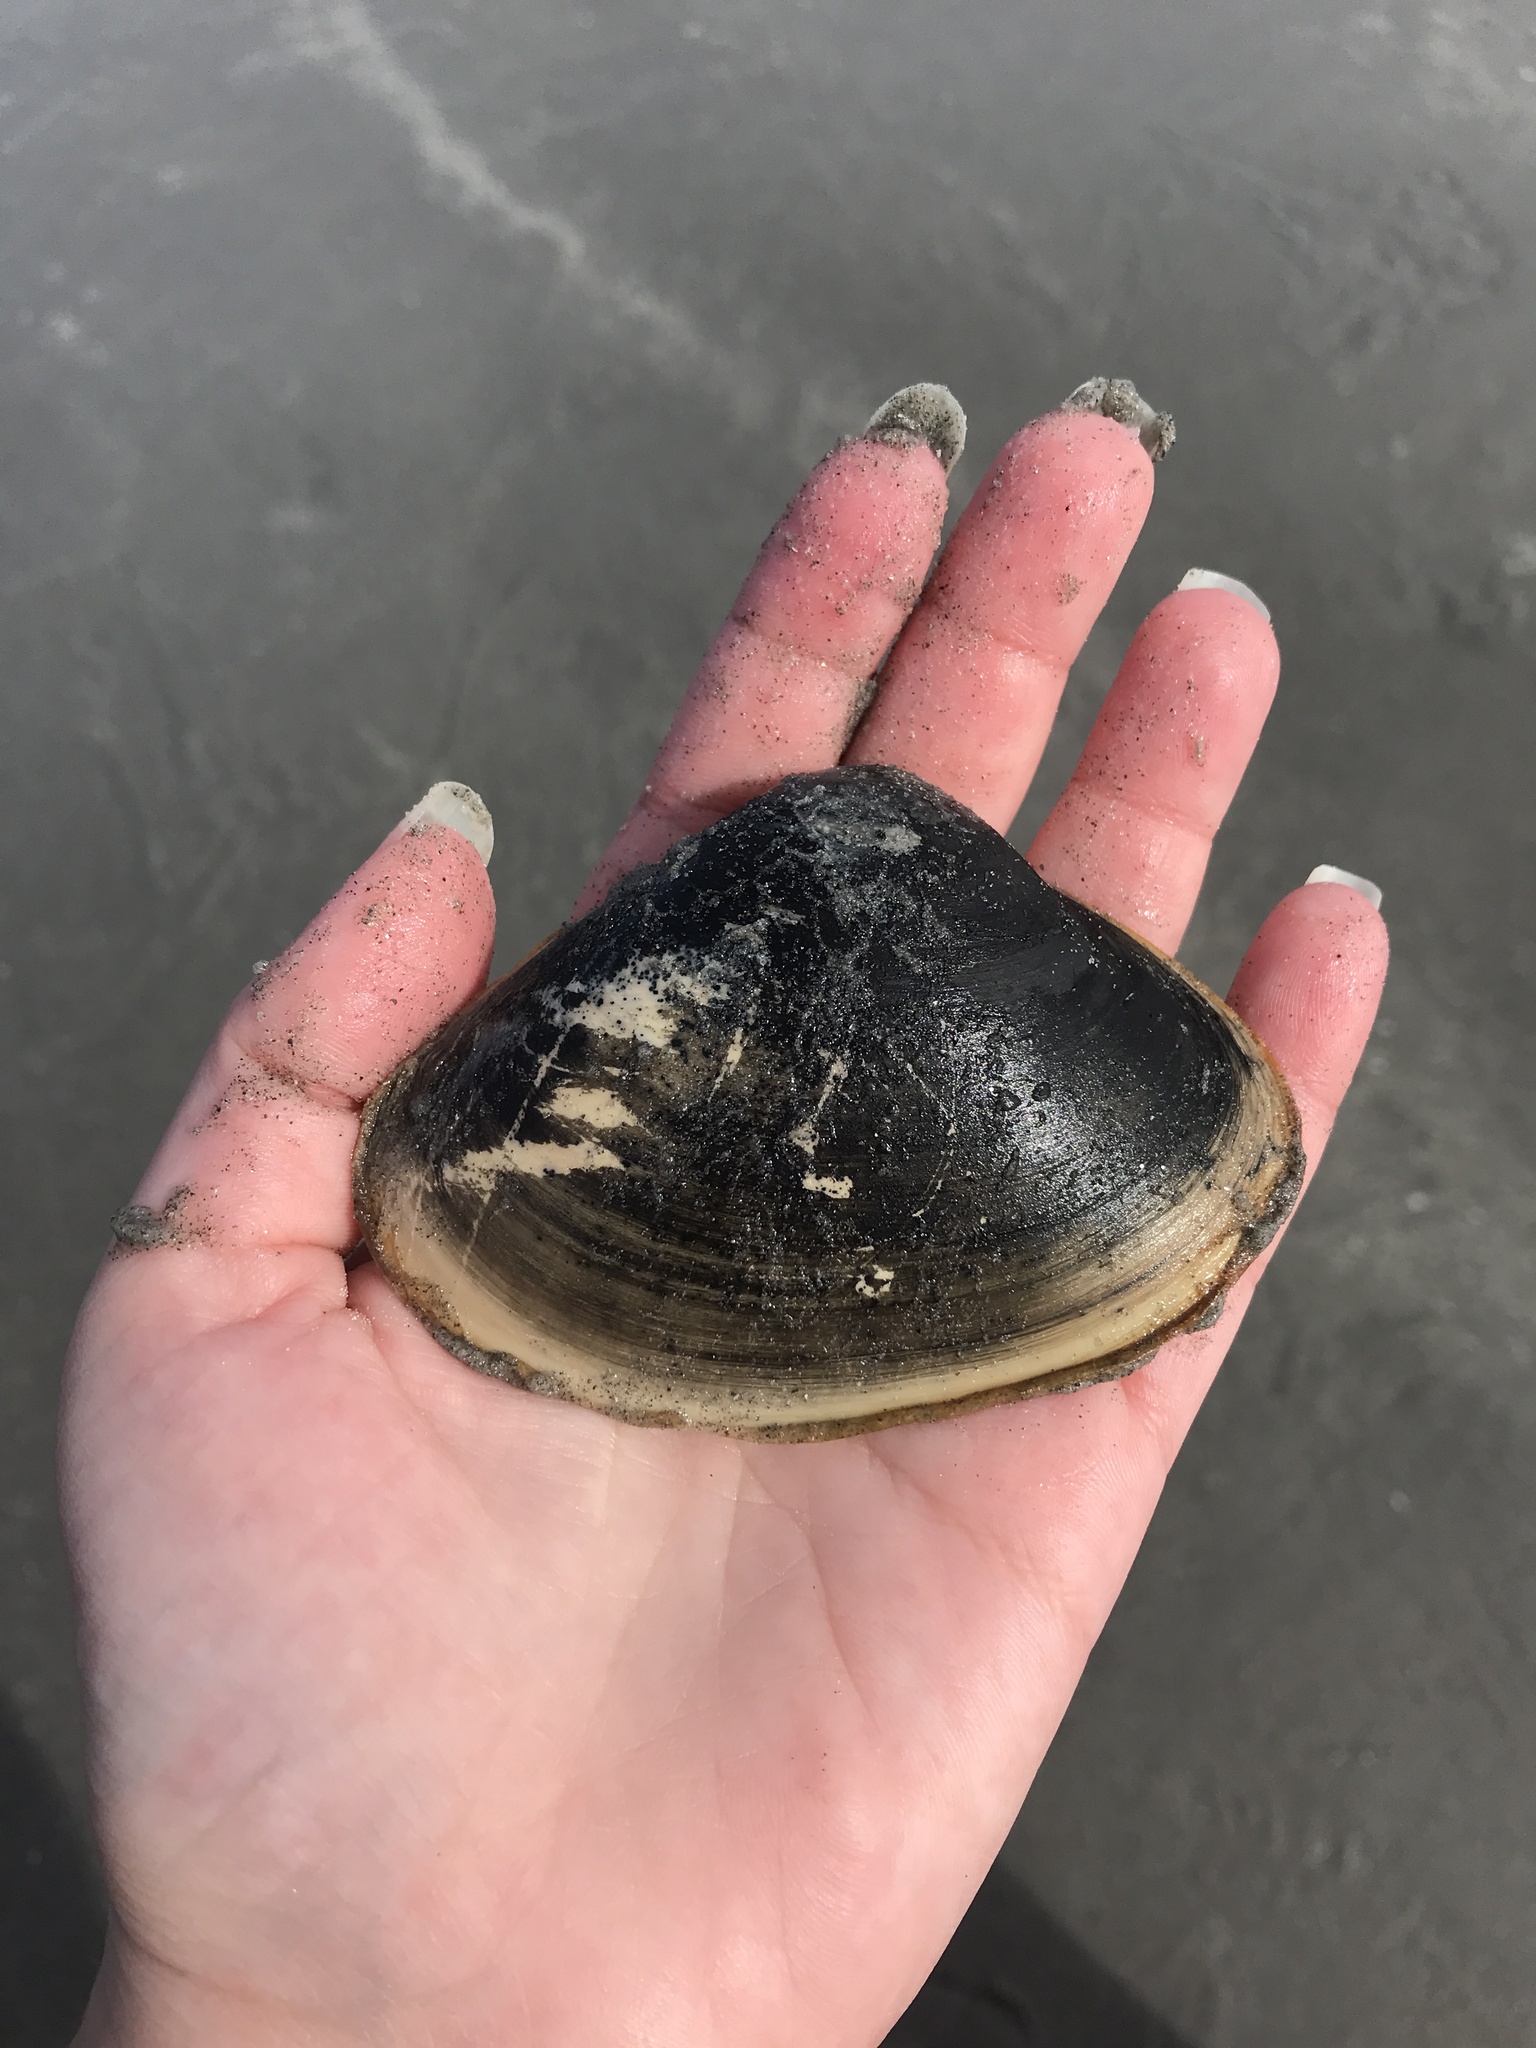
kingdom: Animalia
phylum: Mollusca
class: Bivalvia
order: Venerida
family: Mactridae
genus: Spisula
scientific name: Spisula solidissima
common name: Atlantic surf clam
